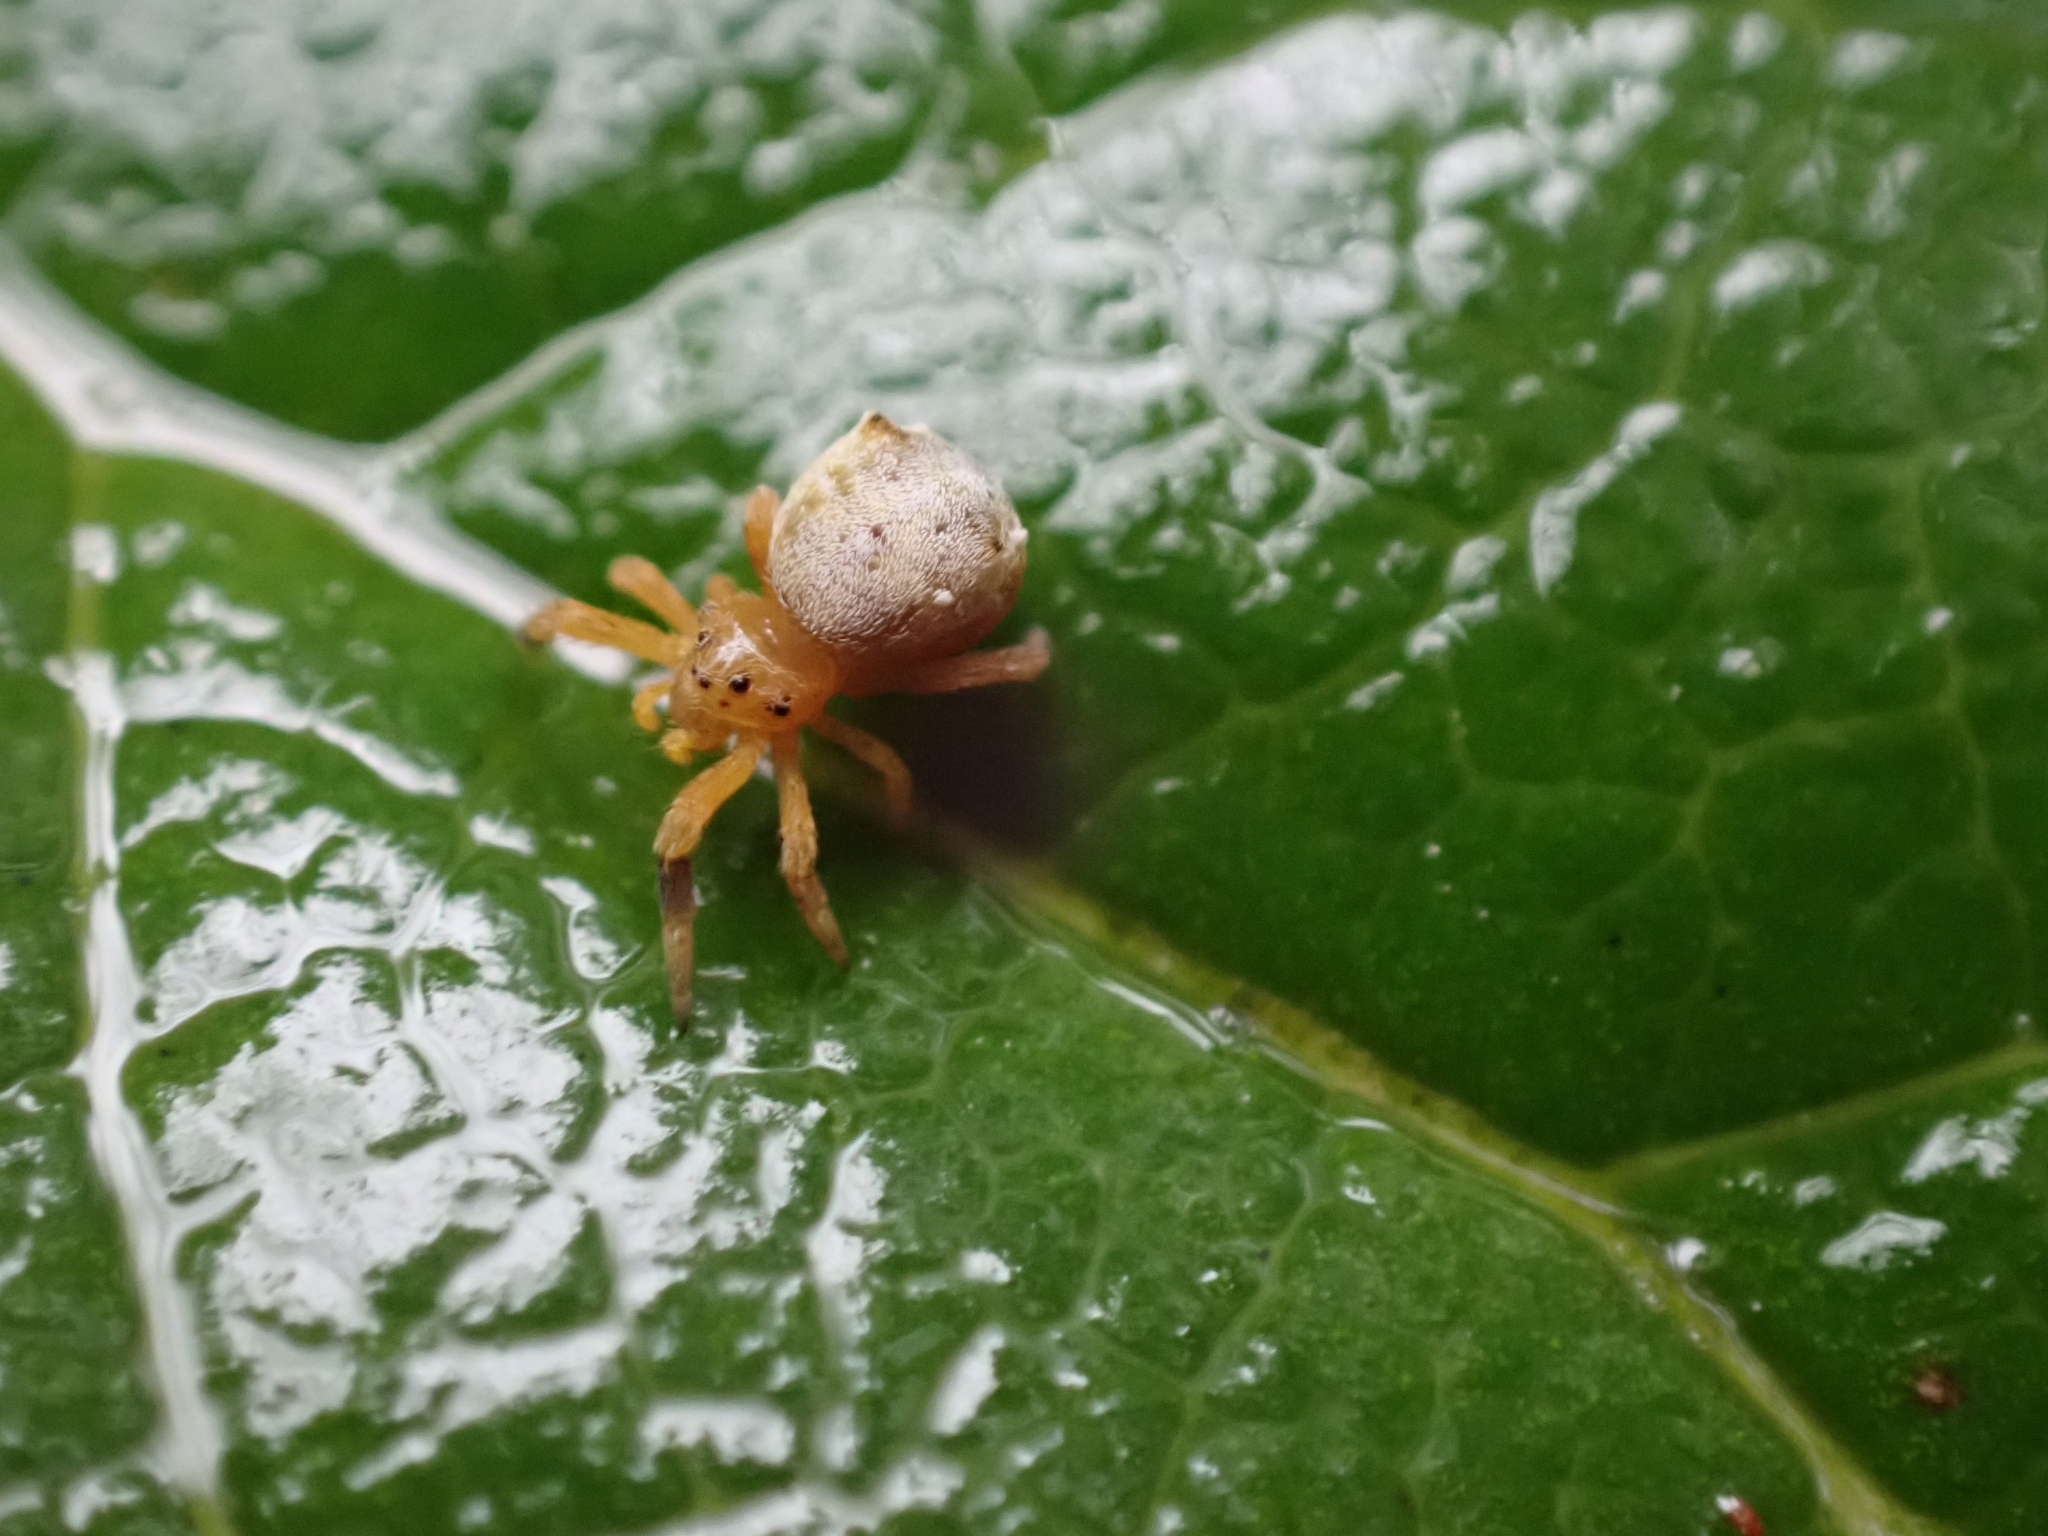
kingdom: Animalia
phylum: Arthropoda
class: Arachnida
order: Araneae
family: Uloboridae
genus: Hyptiotes
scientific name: Hyptiotes gertschi
